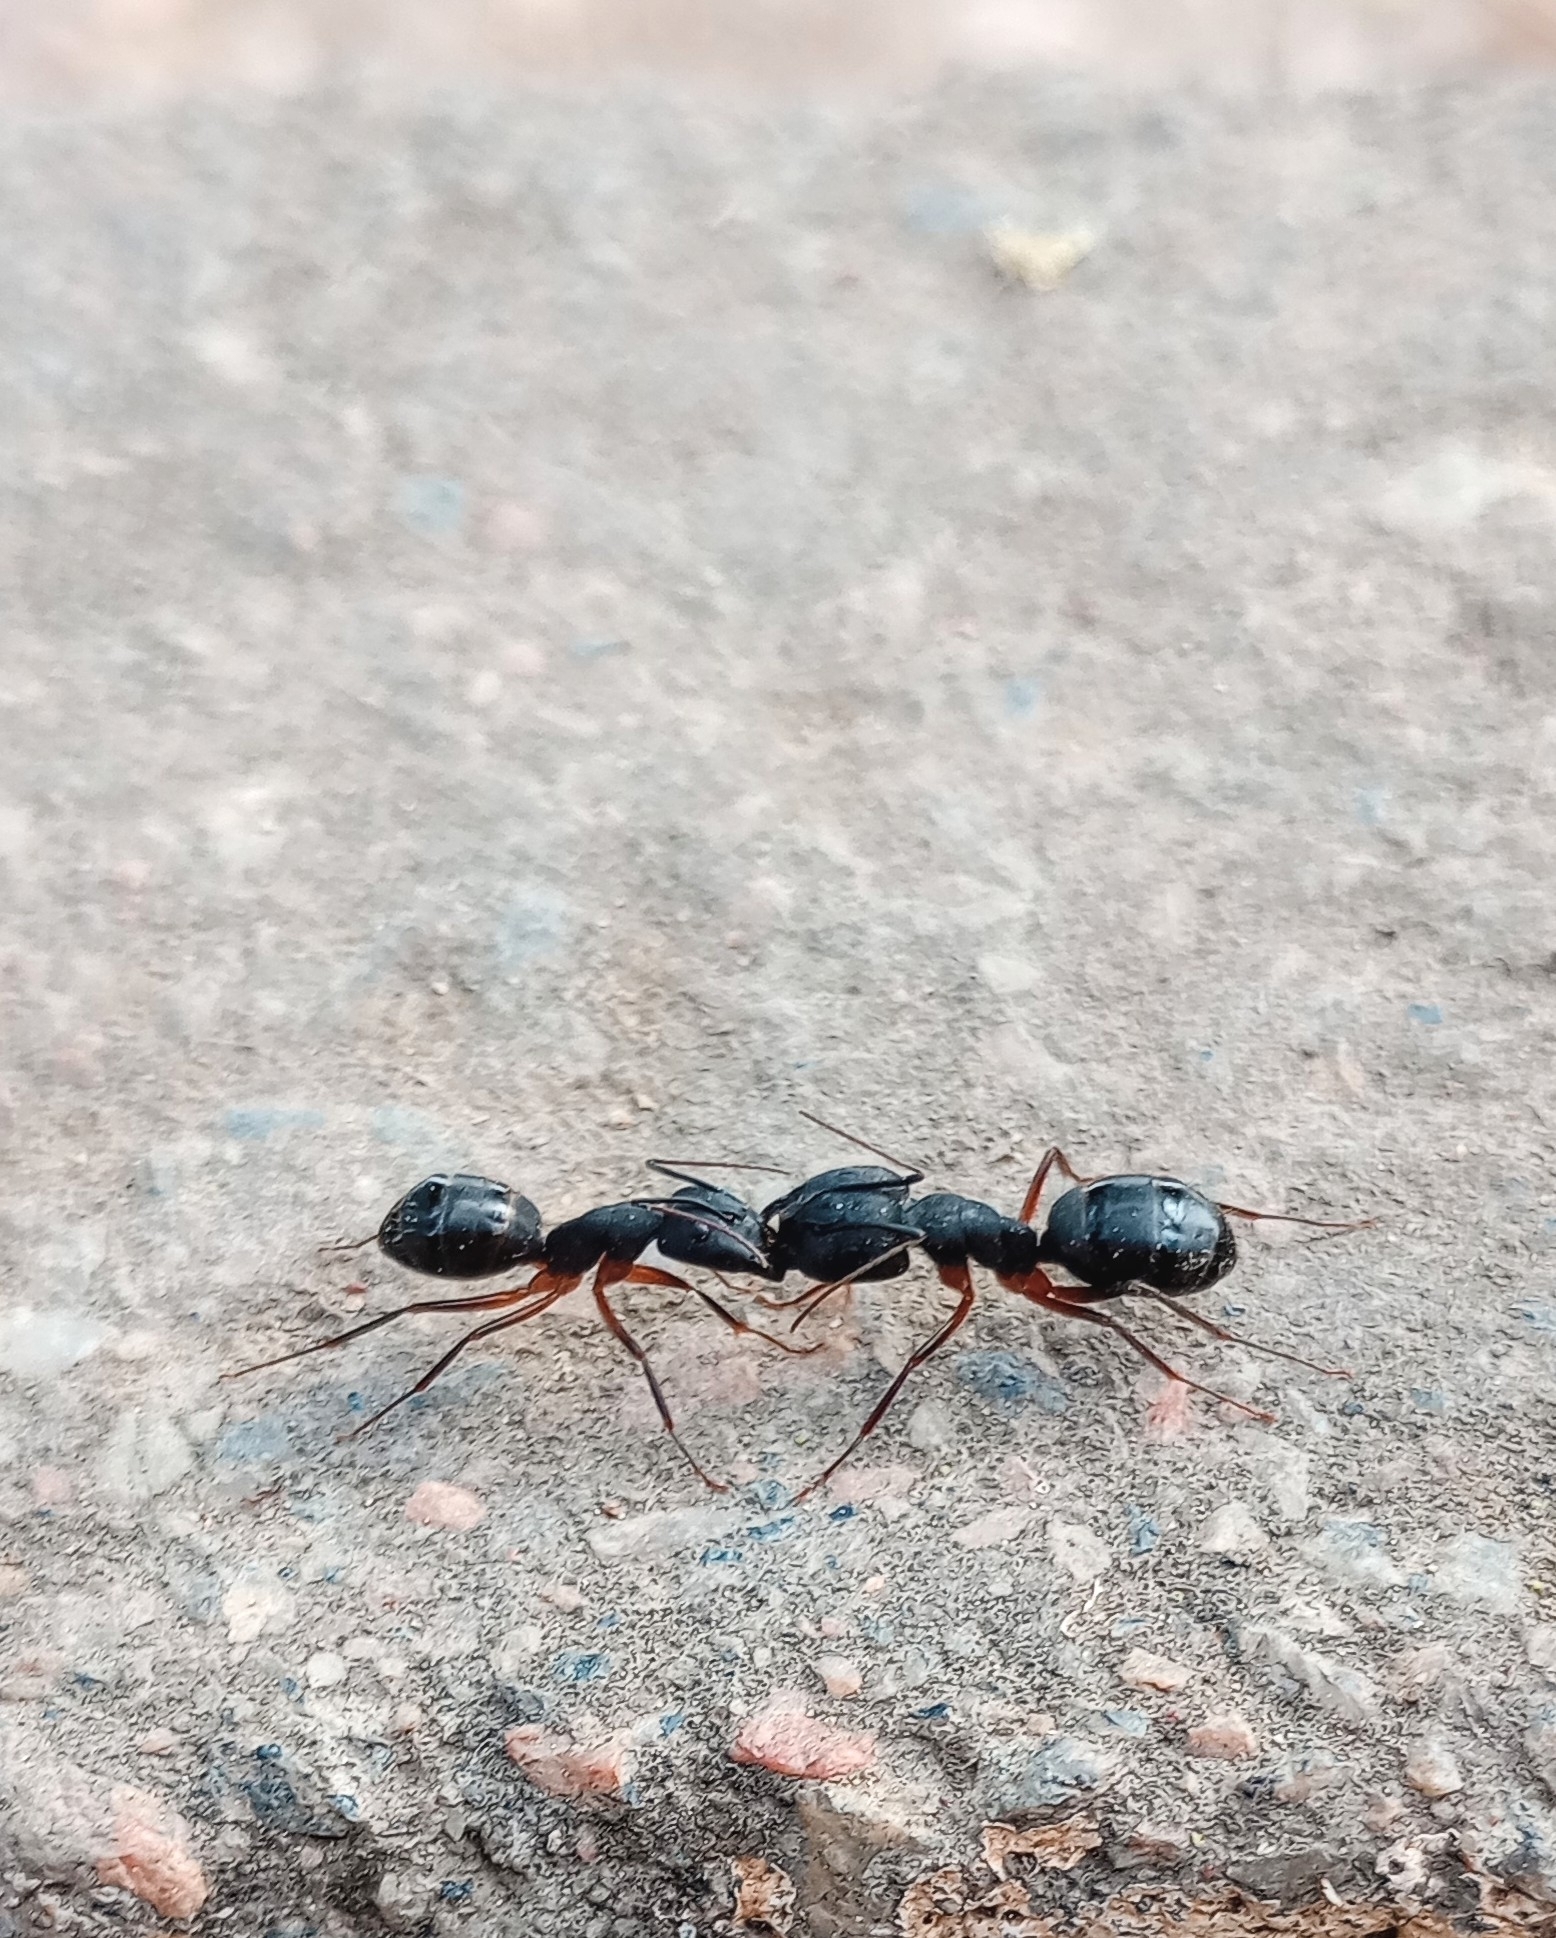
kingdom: Animalia
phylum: Arthropoda
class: Insecta
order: Hymenoptera
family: Formicidae
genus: Camponotus
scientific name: Camponotus compressus
